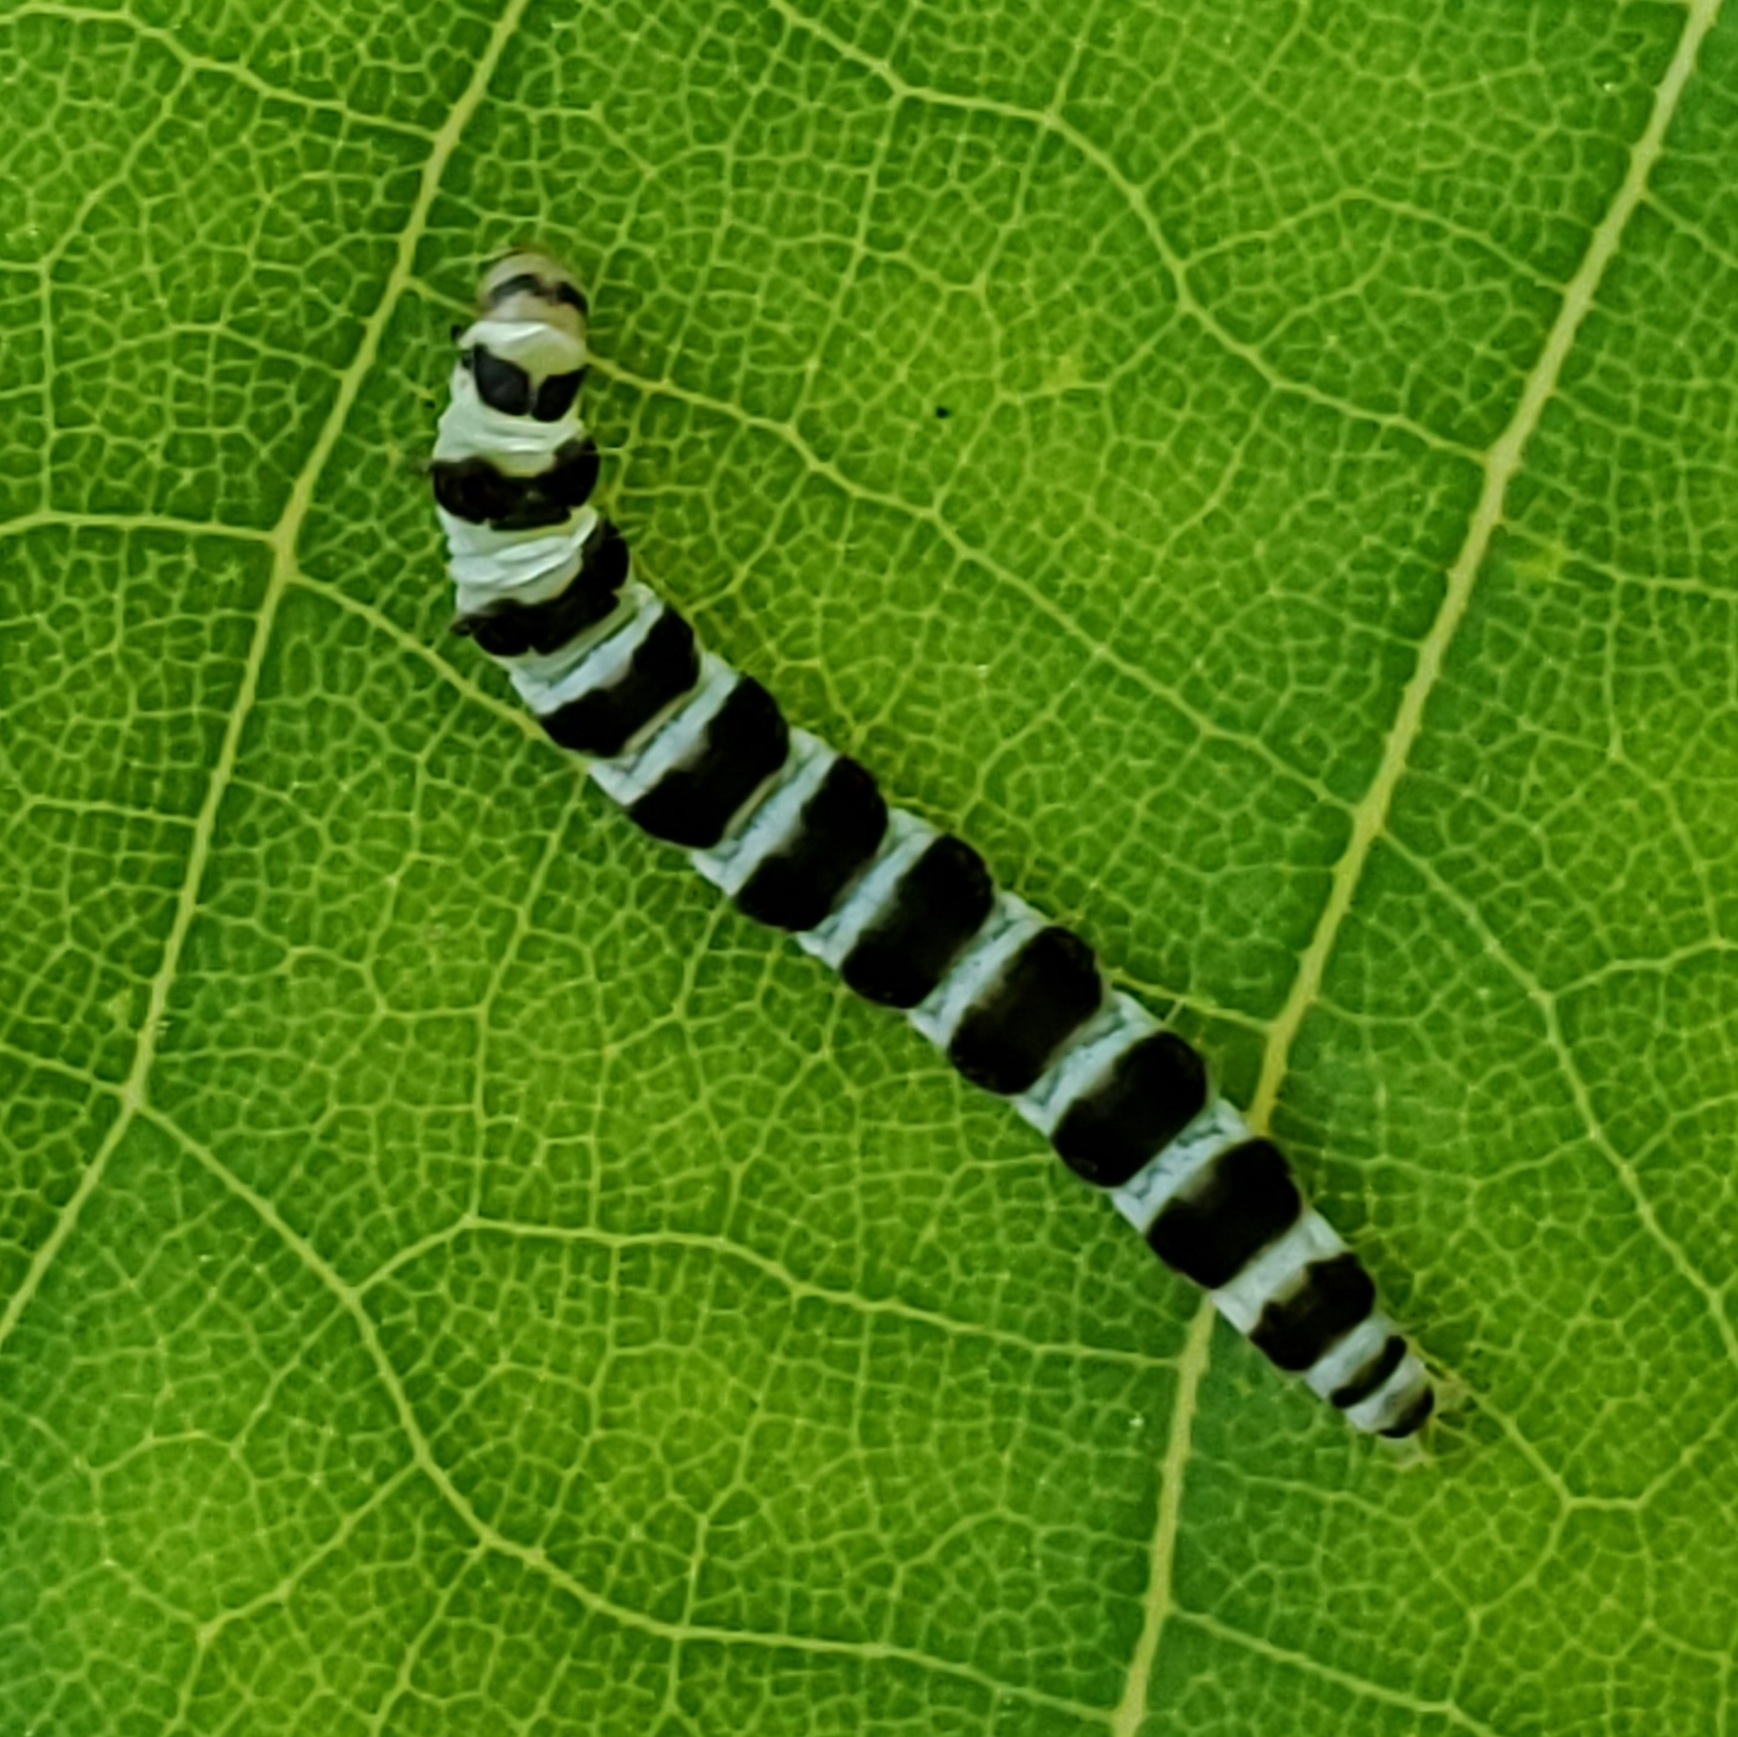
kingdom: Animalia
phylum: Arthropoda
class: Insecta
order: Lepidoptera
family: Gelechiidae
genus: Fascista
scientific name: Fascista cercerisella
